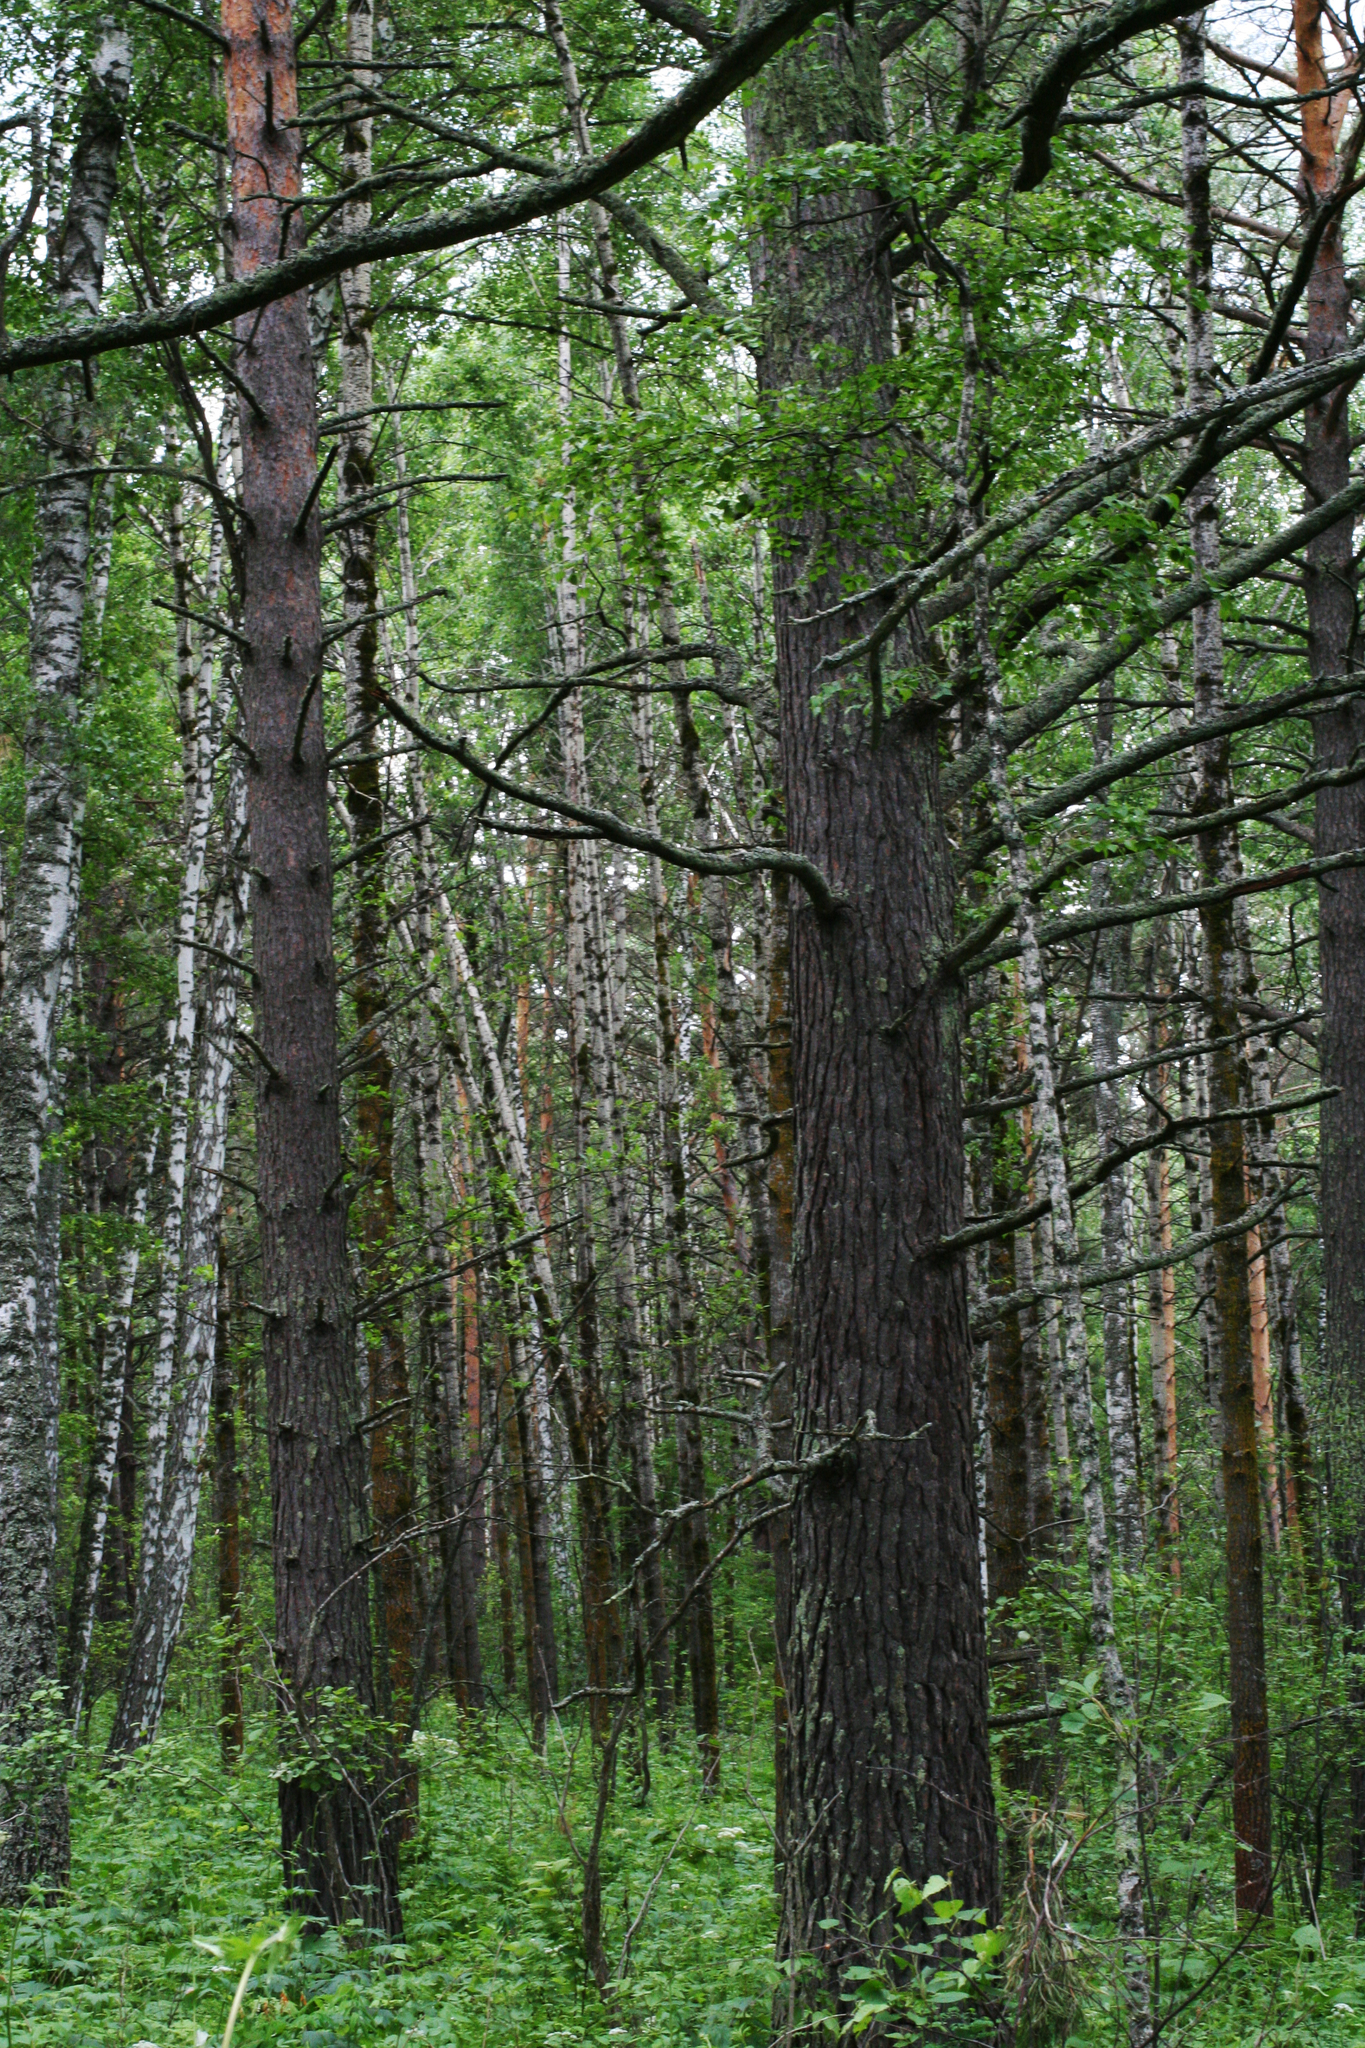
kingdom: Plantae
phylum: Tracheophyta
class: Pinopsida
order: Pinales
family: Pinaceae
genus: Pinus
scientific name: Pinus sylvestris
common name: Scots pine
